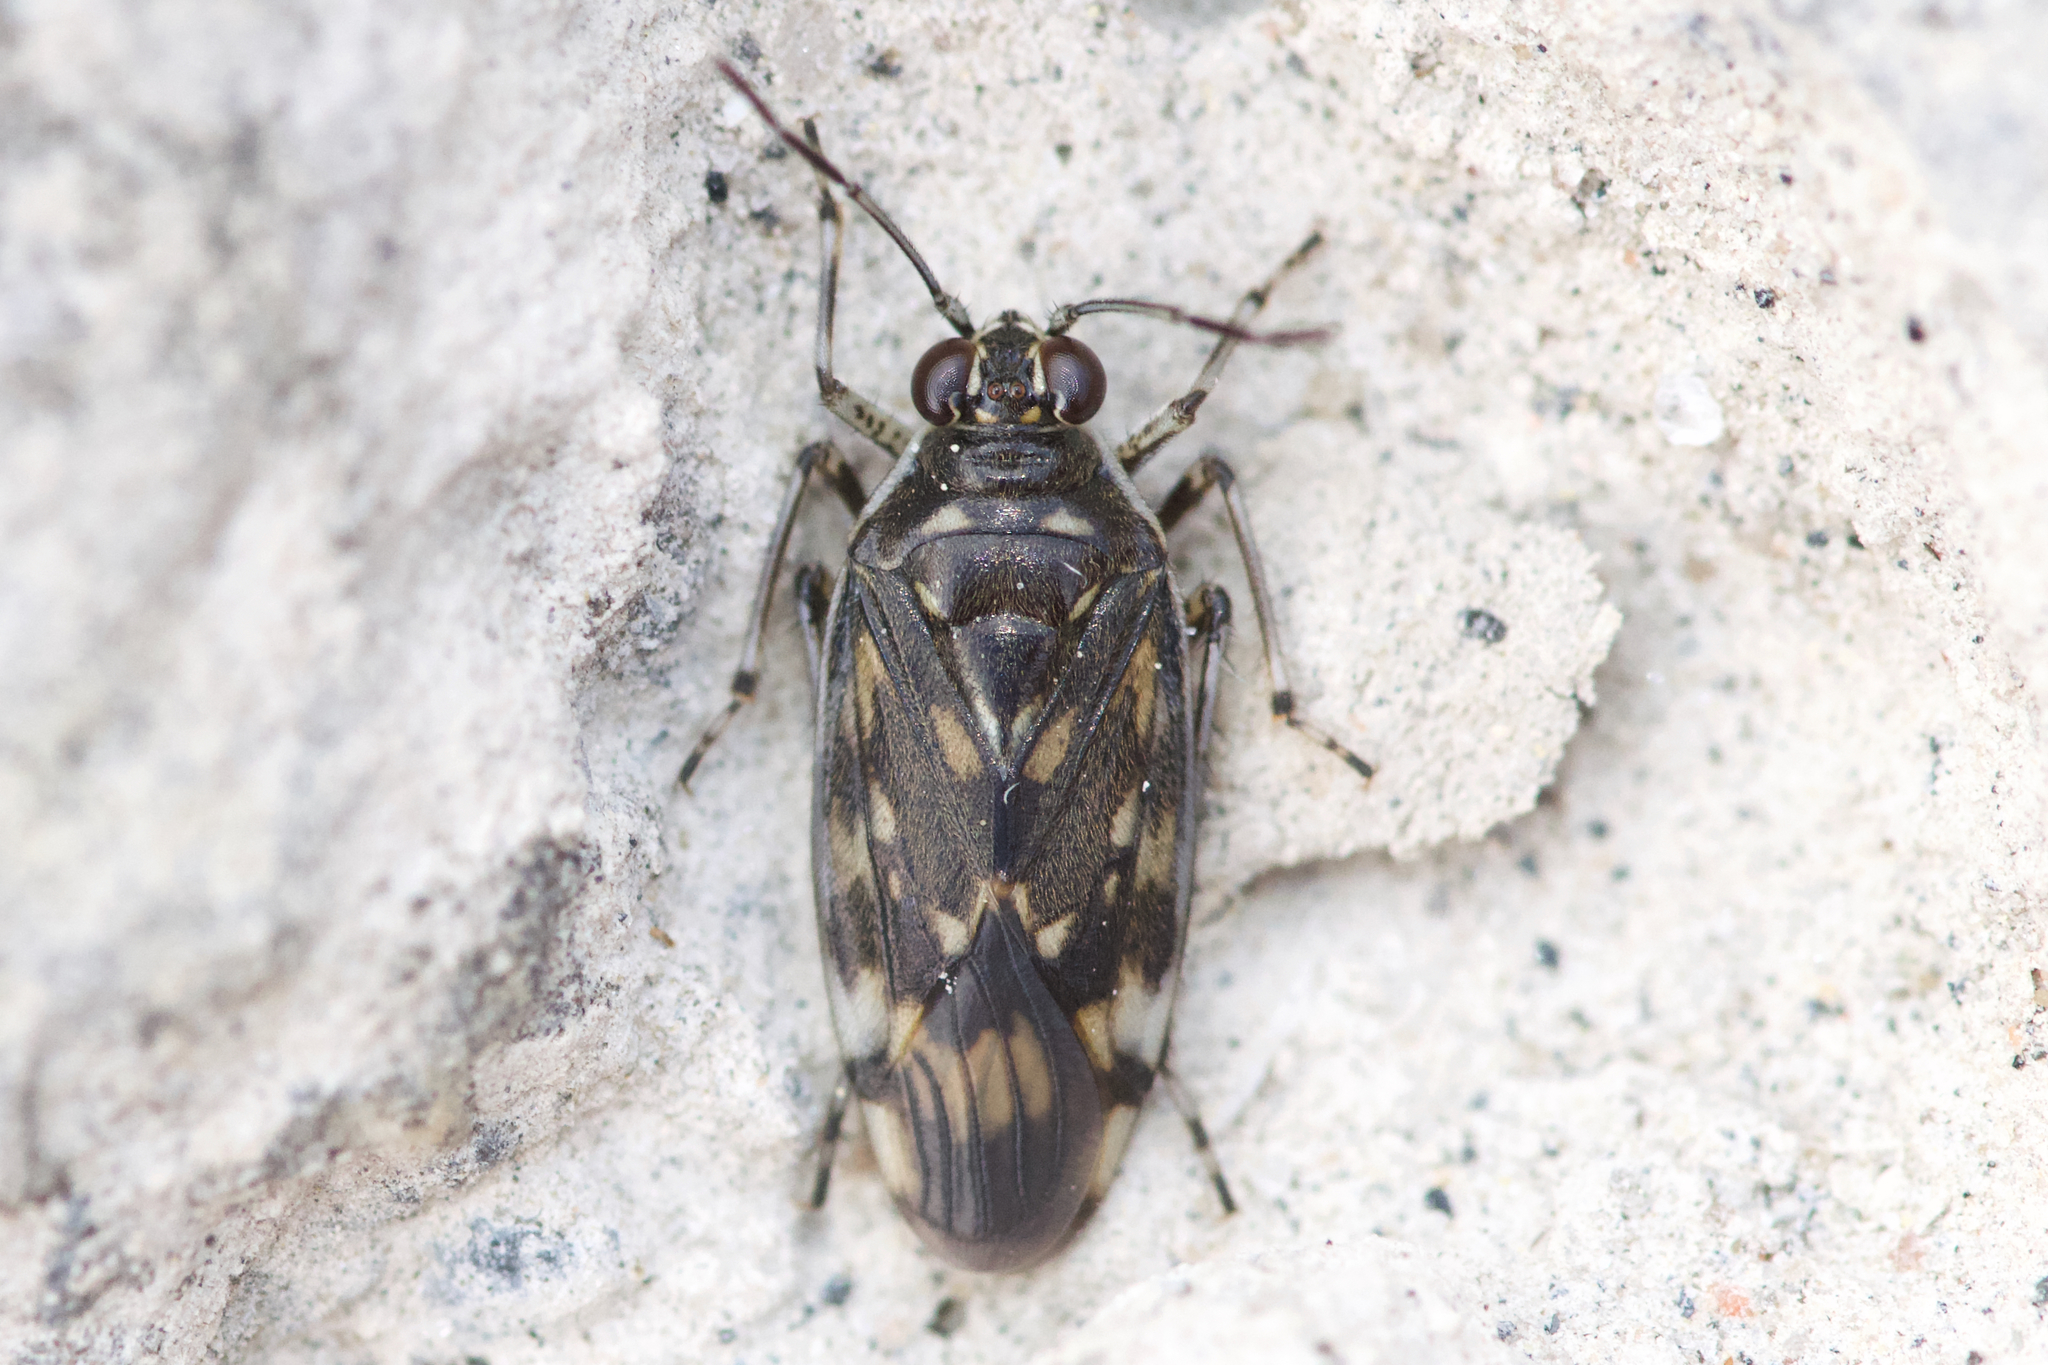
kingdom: Animalia
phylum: Arthropoda
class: Insecta
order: Hemiptera
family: Saldidae
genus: Pentacora
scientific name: Pentacora ligata
